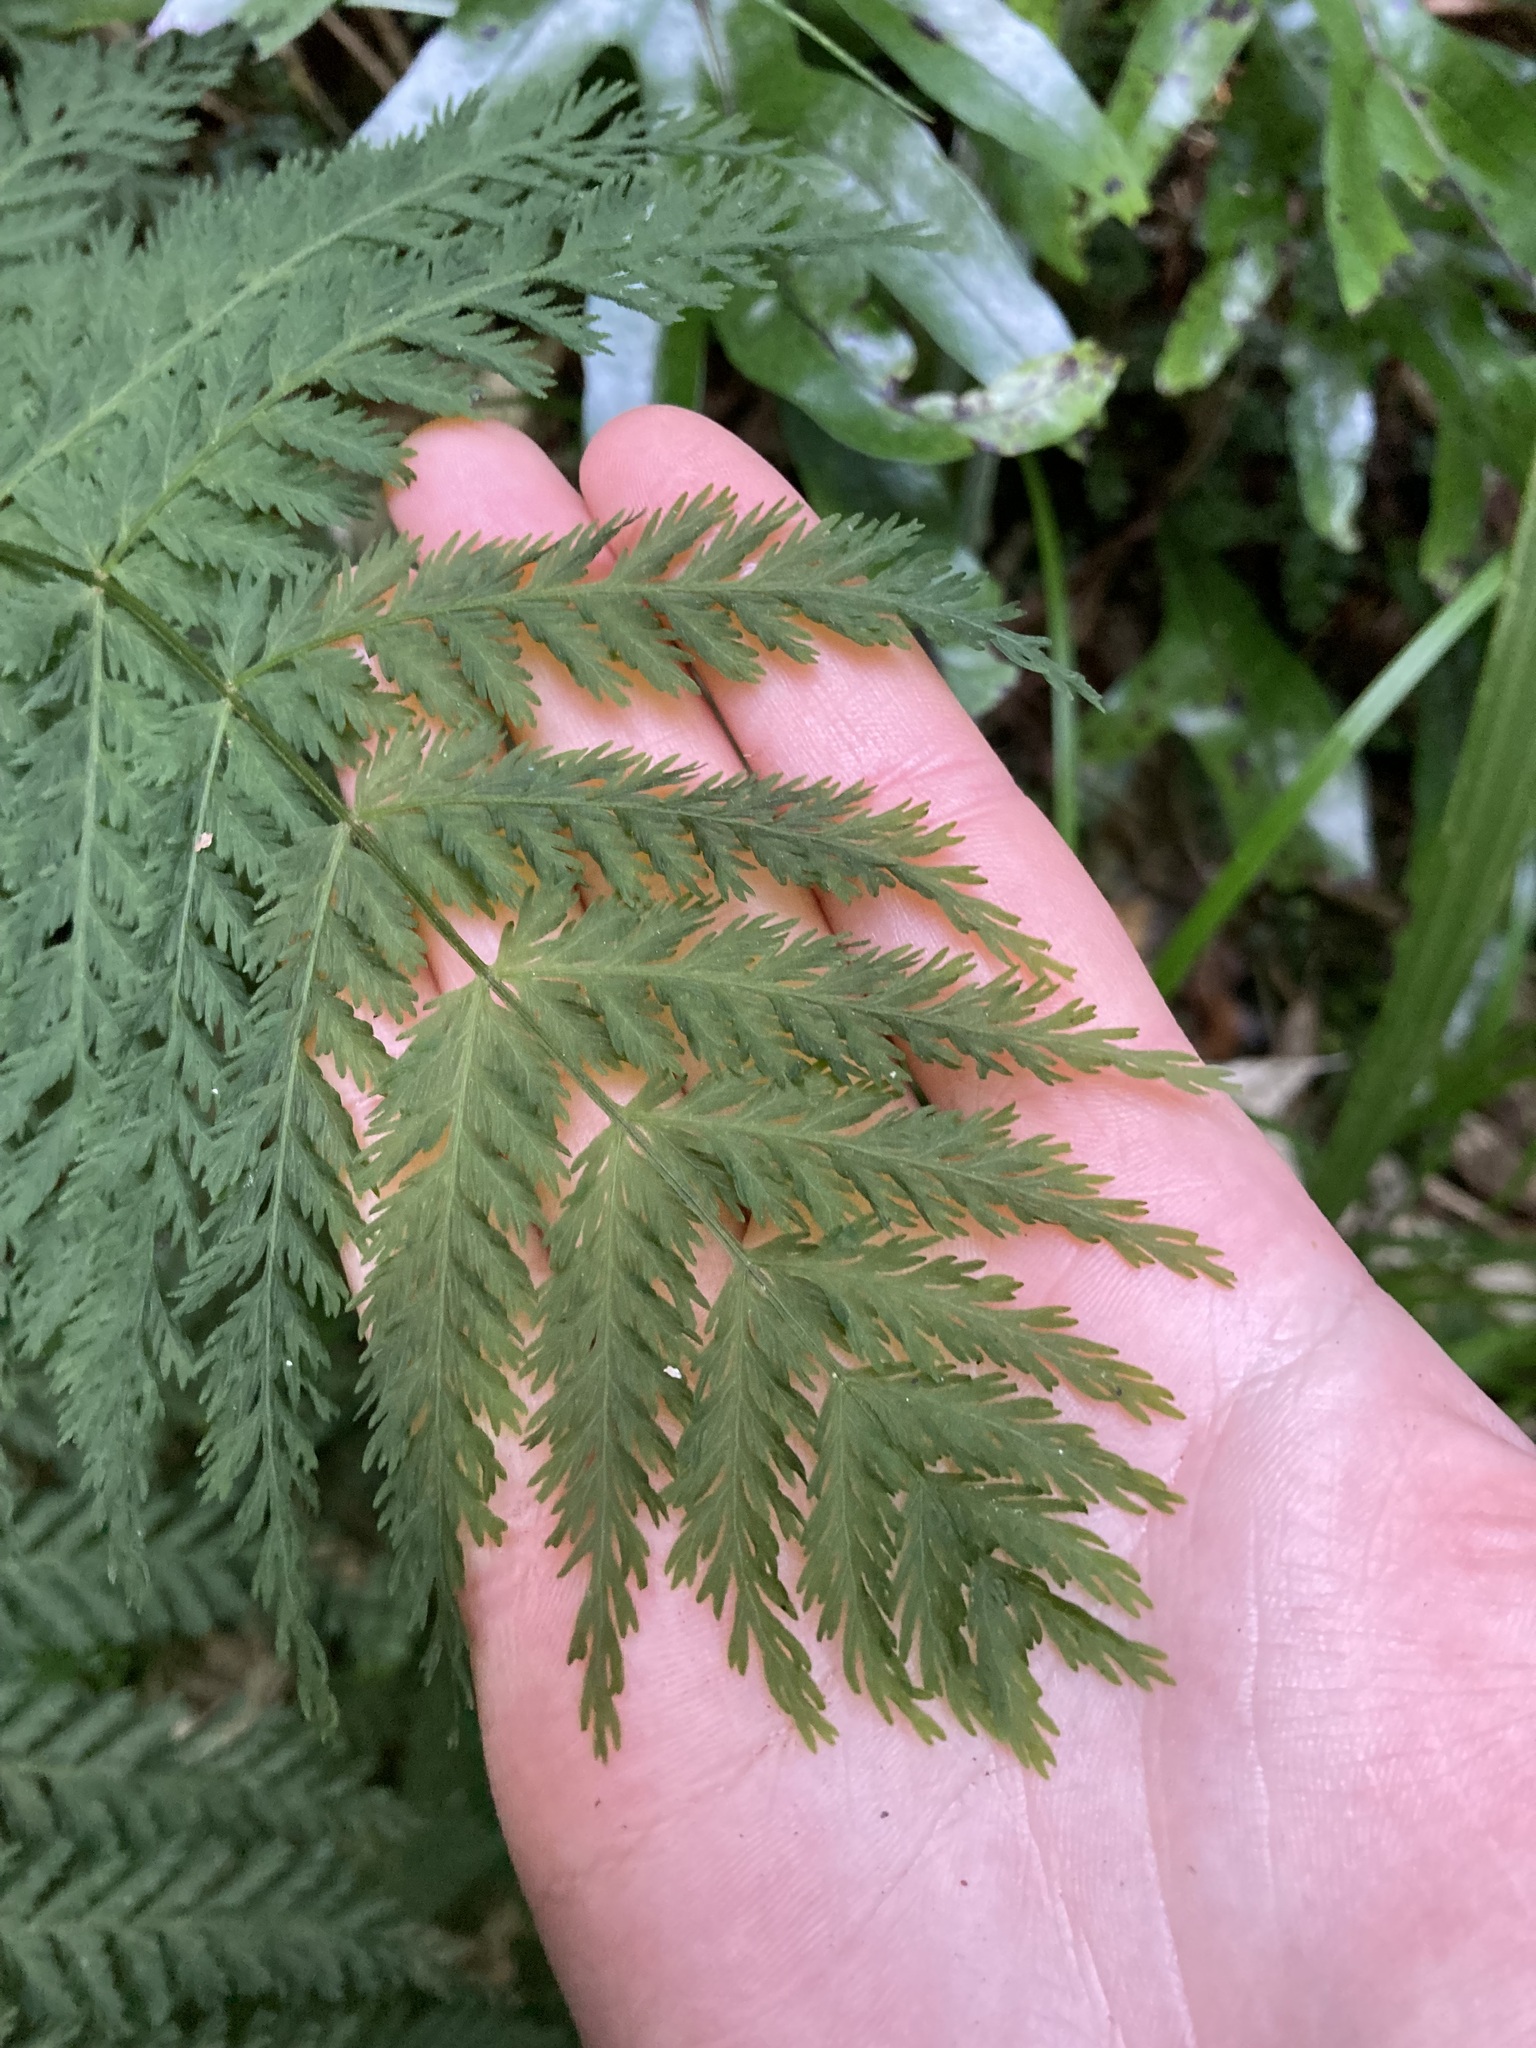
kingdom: Plantae
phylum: Tracheophyta
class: Polypodiopsida
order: Osmundales
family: Osmundaceae
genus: Leptopteris
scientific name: Leptopteris hymenophylloides
